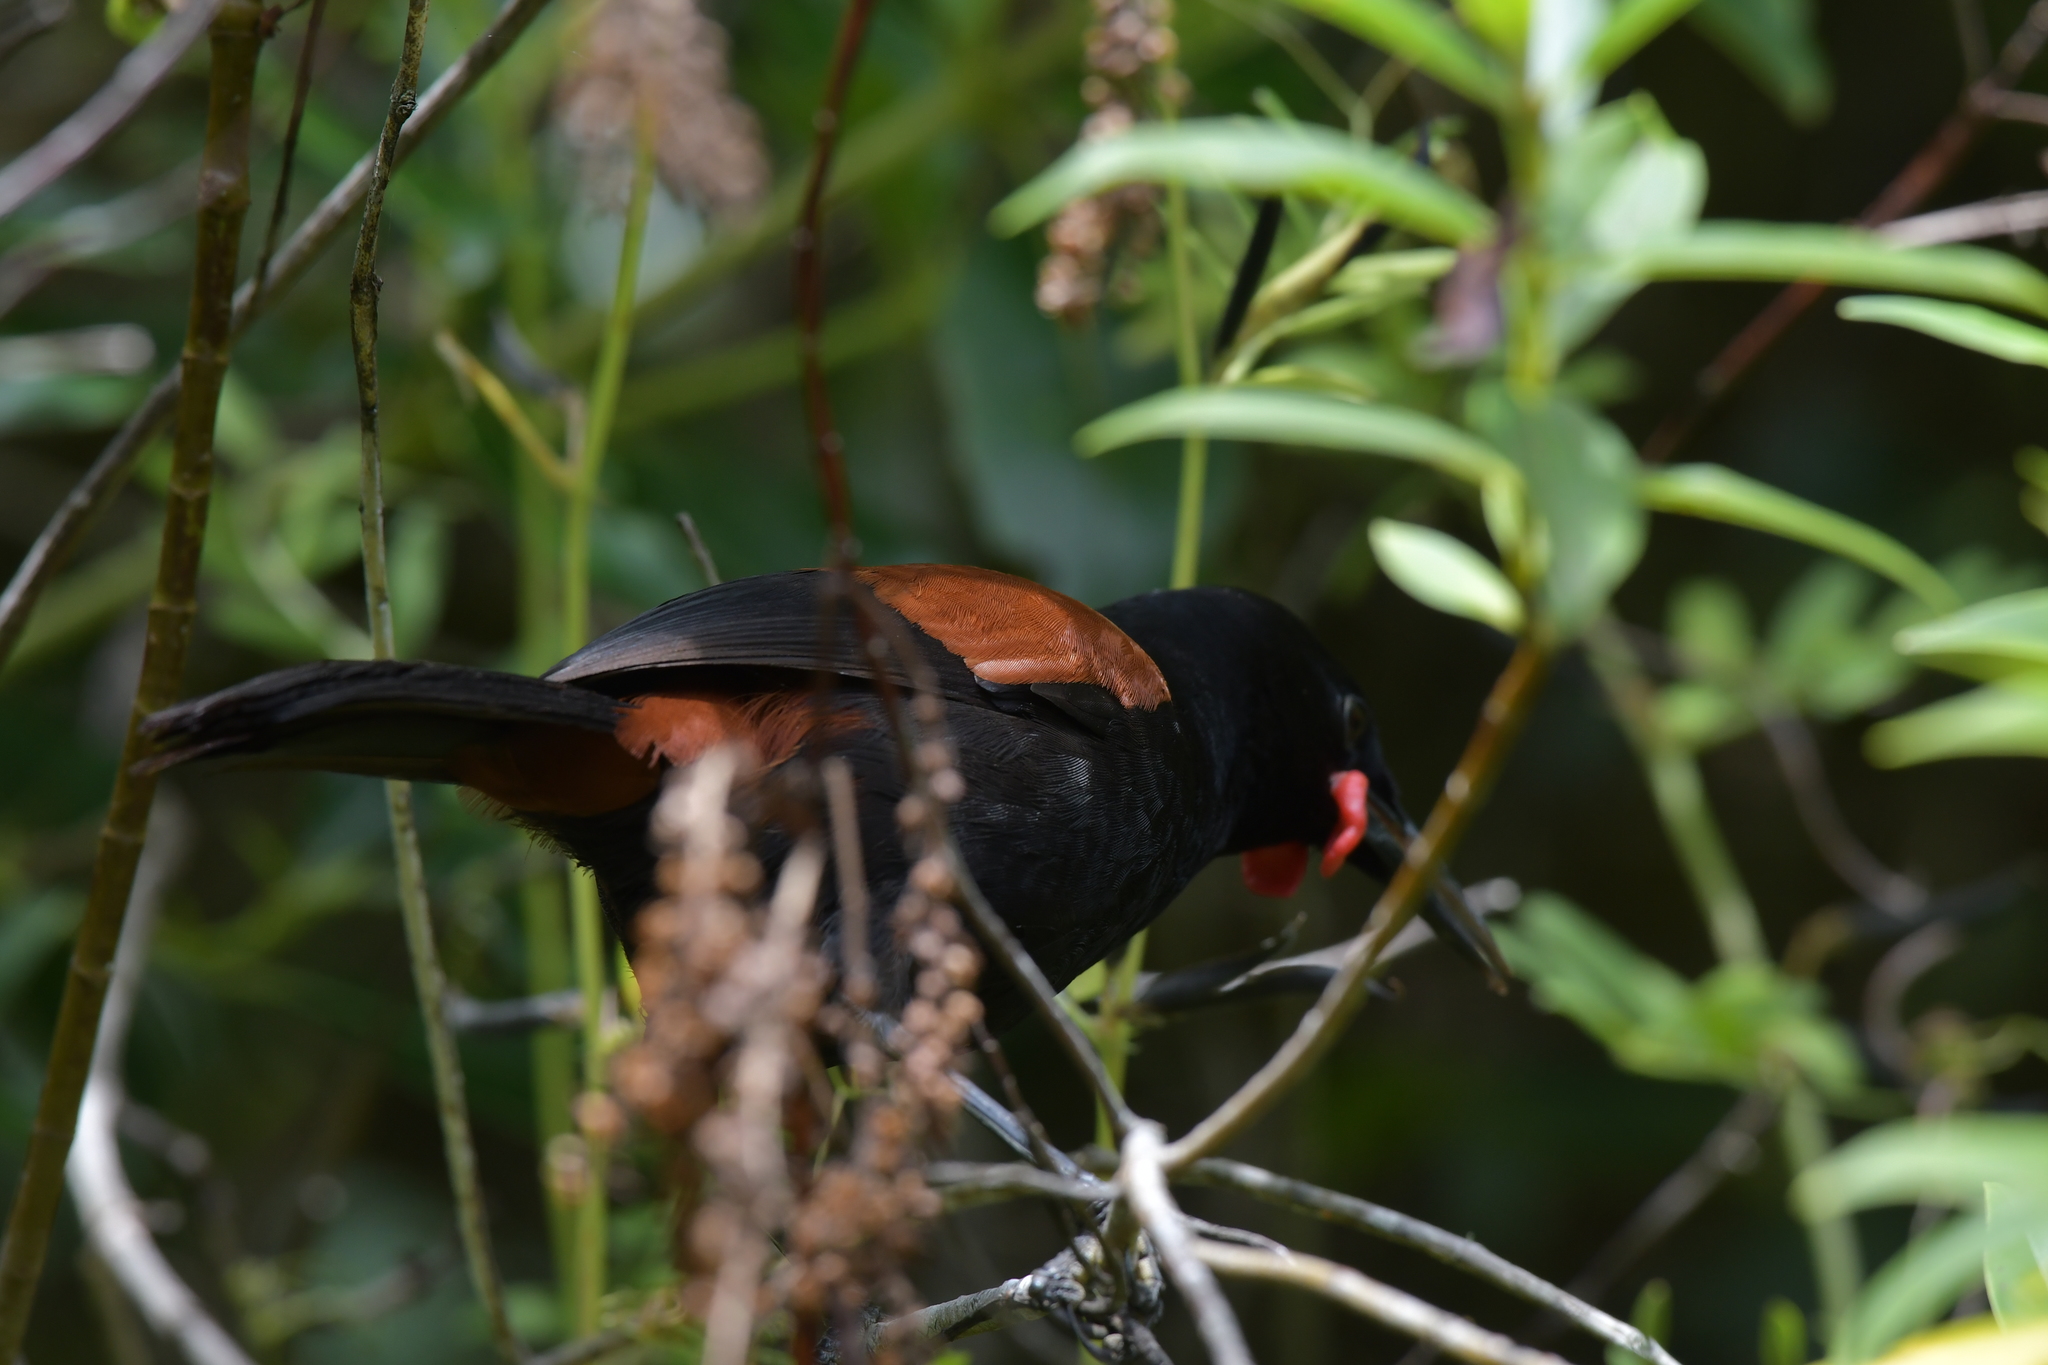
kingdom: Animalia
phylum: Chordata
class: Aves
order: Passeriformes
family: Callaeatidae
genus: Philesturnus
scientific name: Philesturnus carunculatus
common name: South island saddleback
